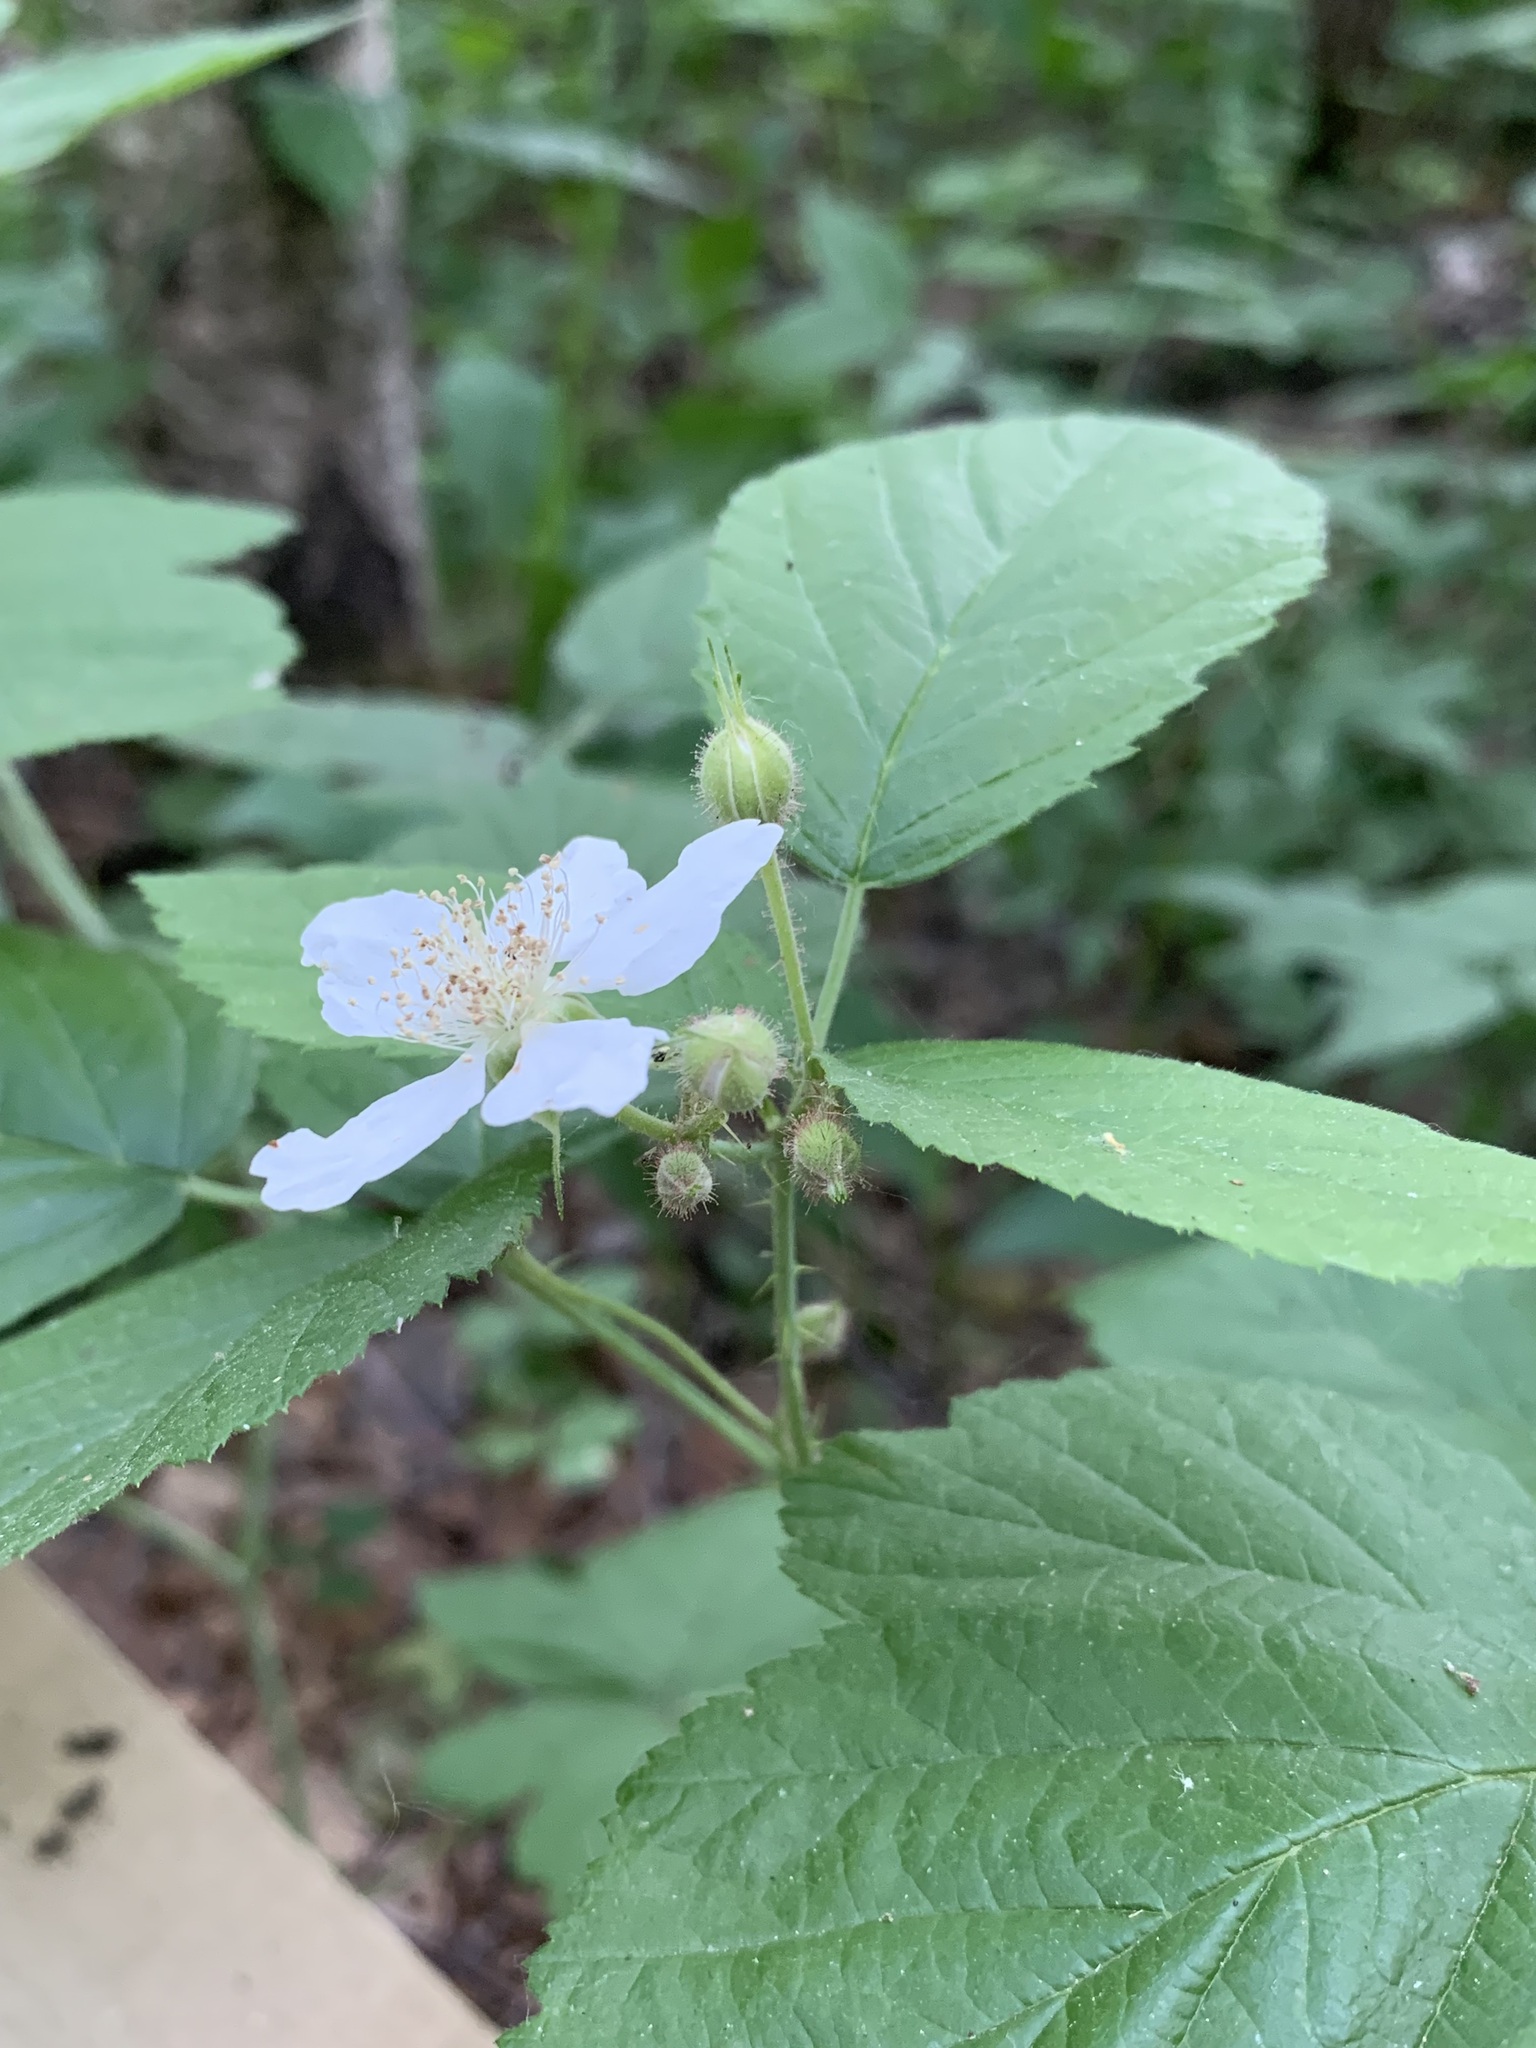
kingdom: Plantae
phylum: Tracheophyta
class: Magnoliopsida
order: Rosales
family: Rosaceae
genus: Rubus
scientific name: Rubus caesius
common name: Dewberry
